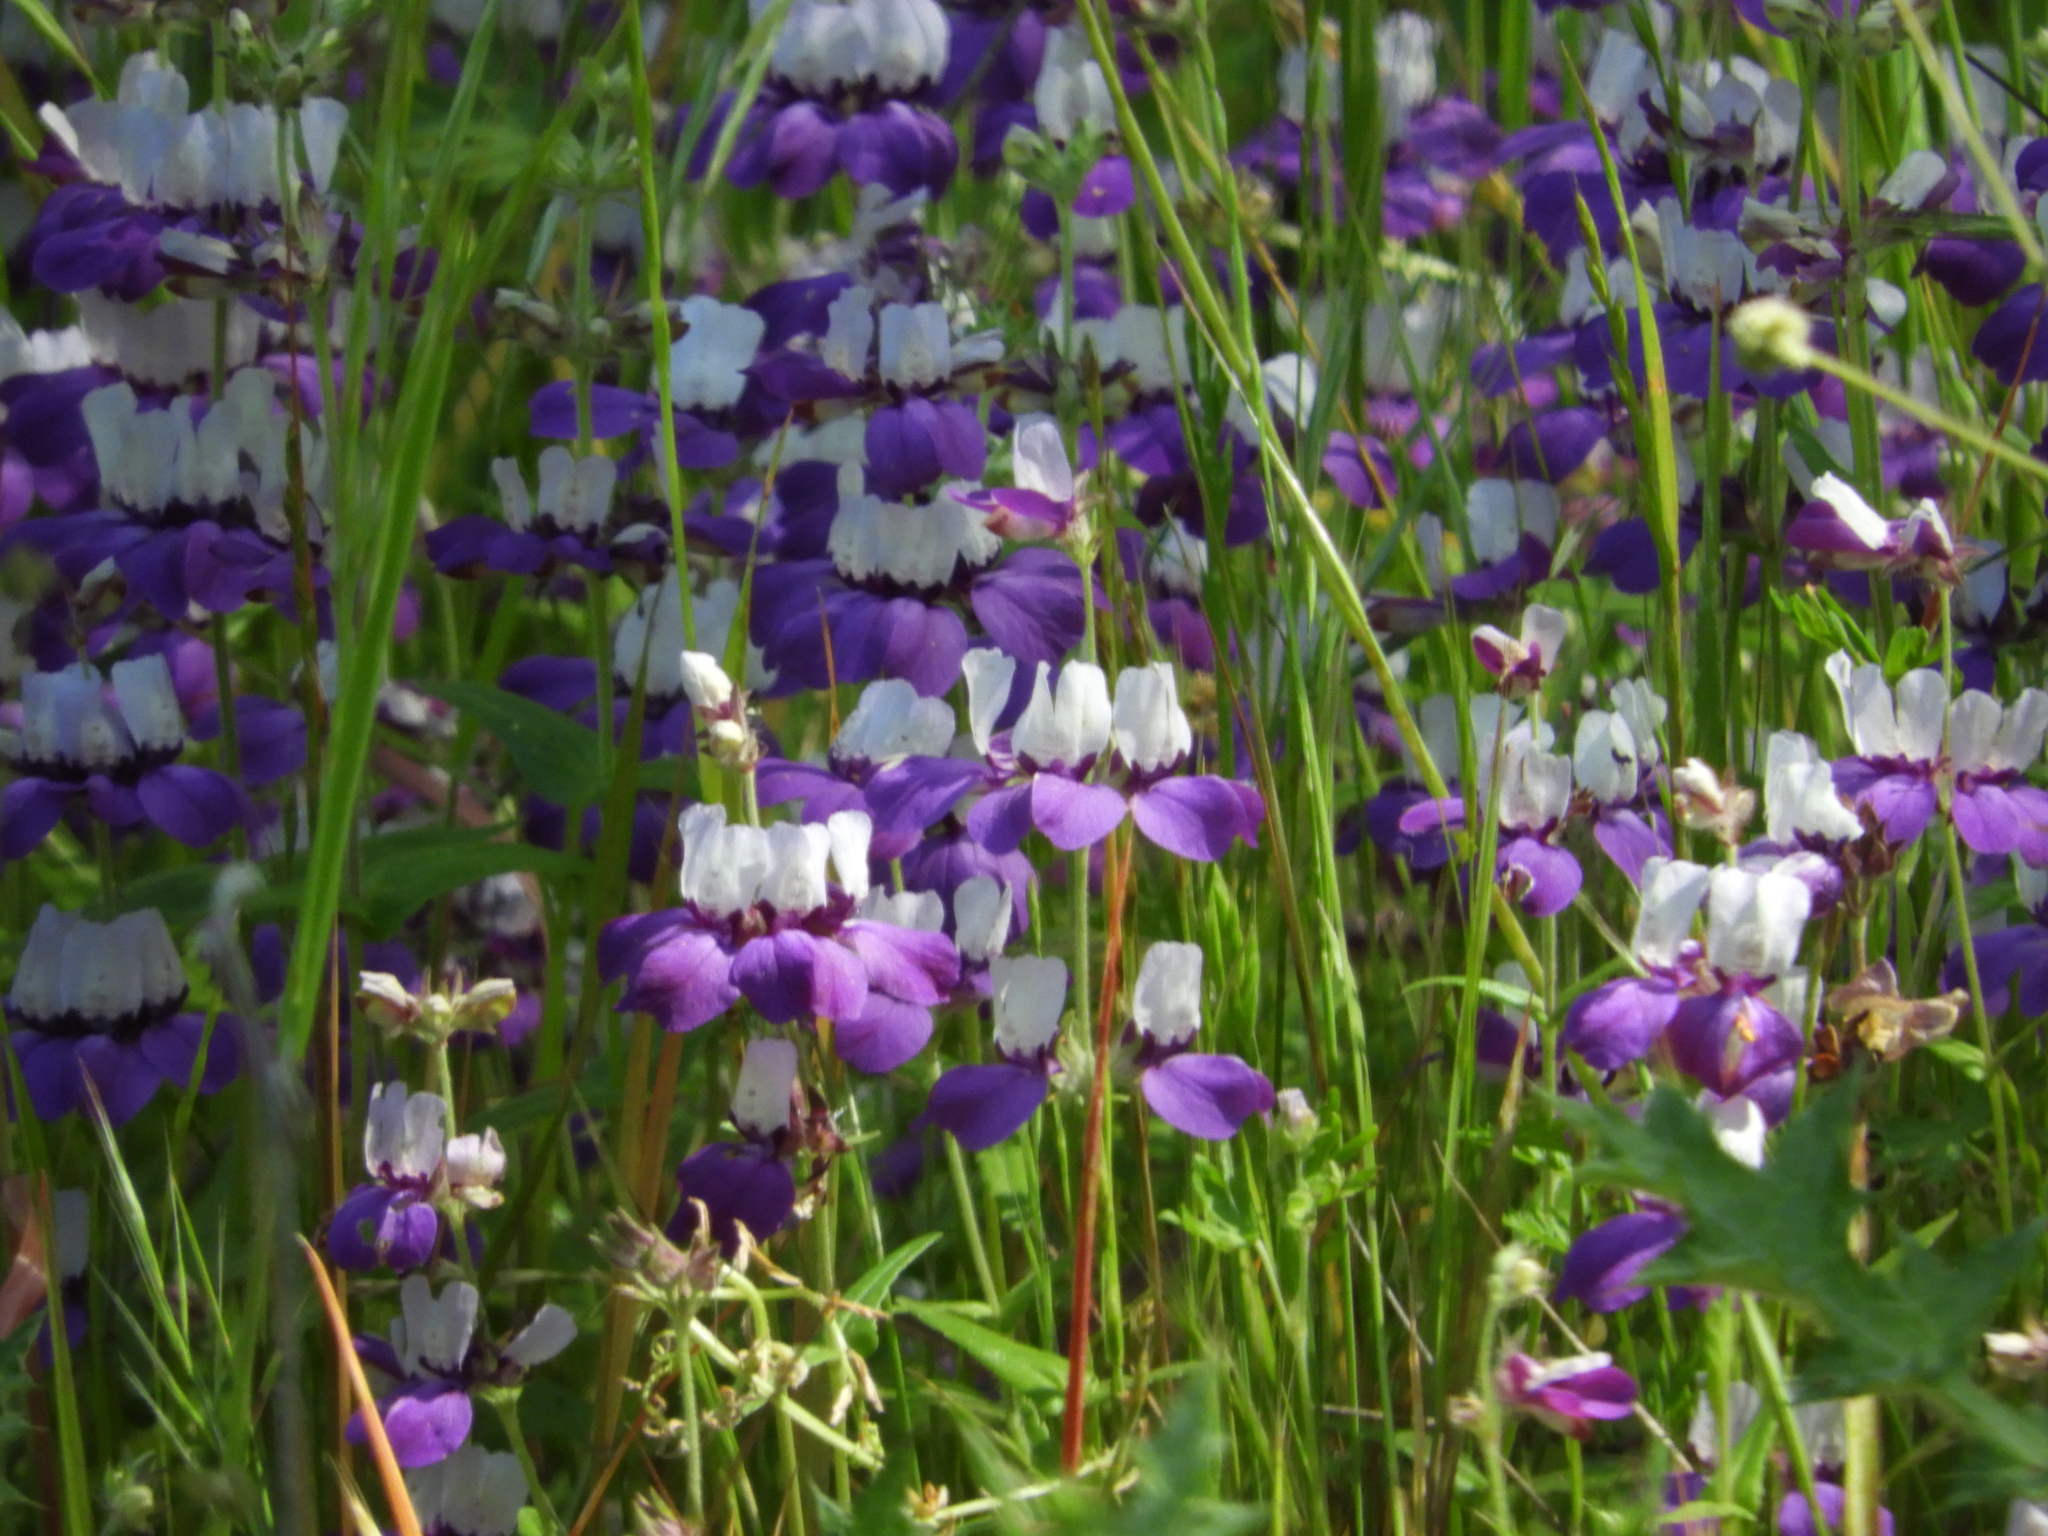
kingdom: Plantae
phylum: Tracheophyta
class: Magnoliopsida
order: Lamiales
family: Plantaginaceae
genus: Collinsia
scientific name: Collinsia heterophylla
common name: Chinese-houses
